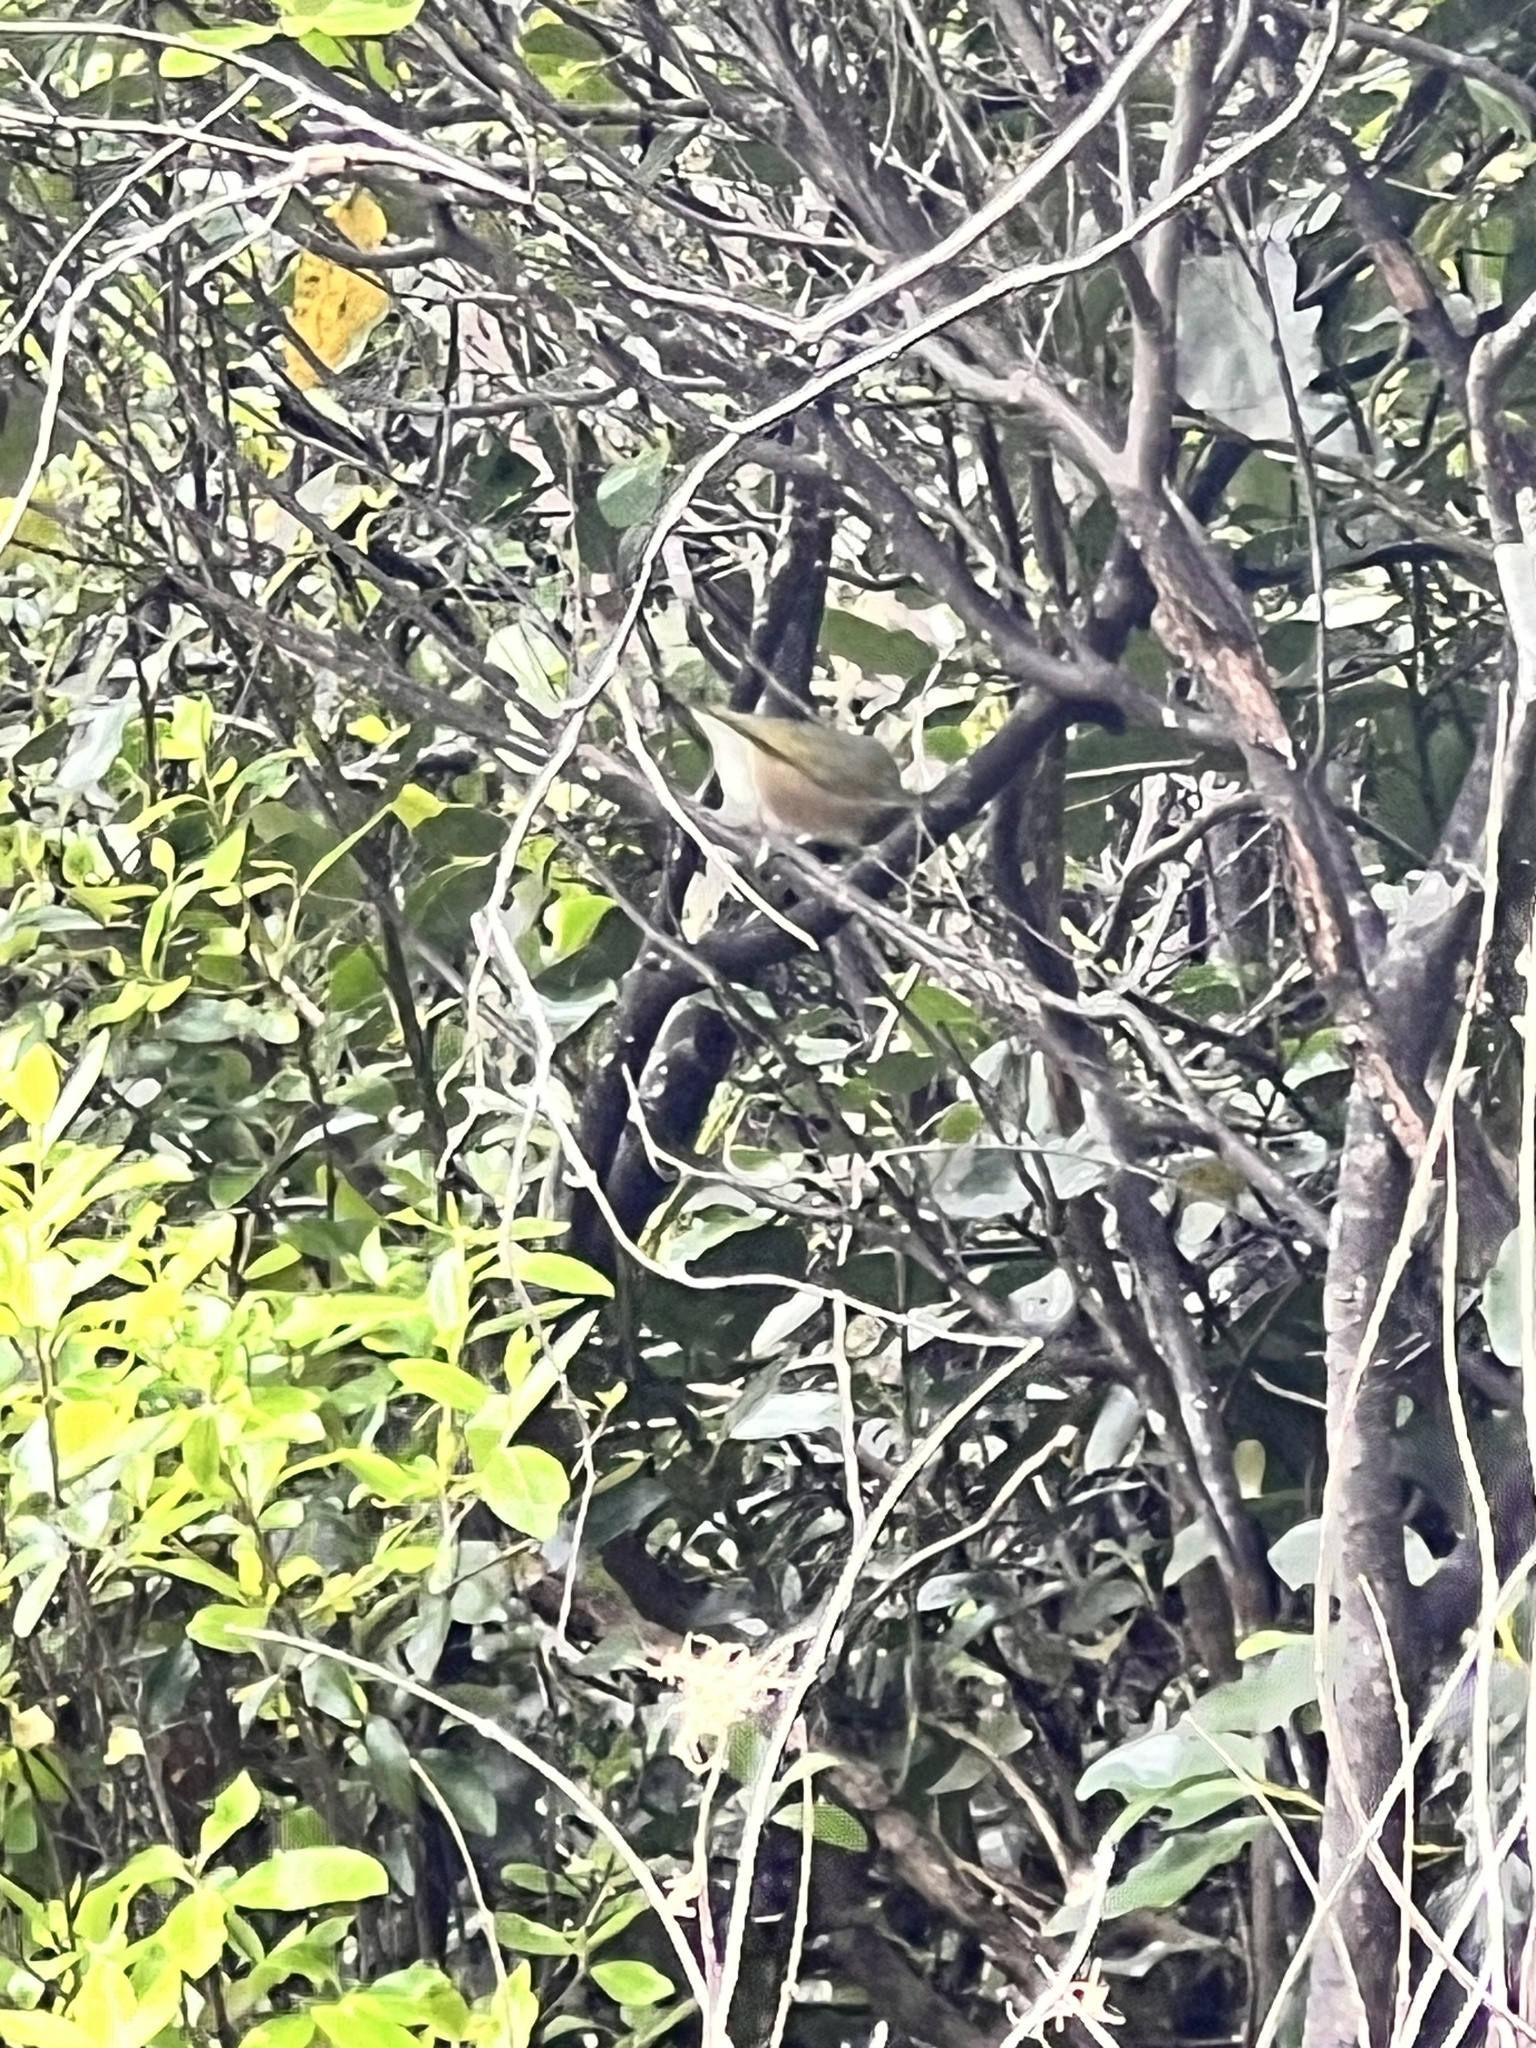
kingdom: Animalia
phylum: Chordata
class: Aves
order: Passeriformes
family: Zosteropidae
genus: Zosterops
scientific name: Zosterops lateralis
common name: Silvereye
